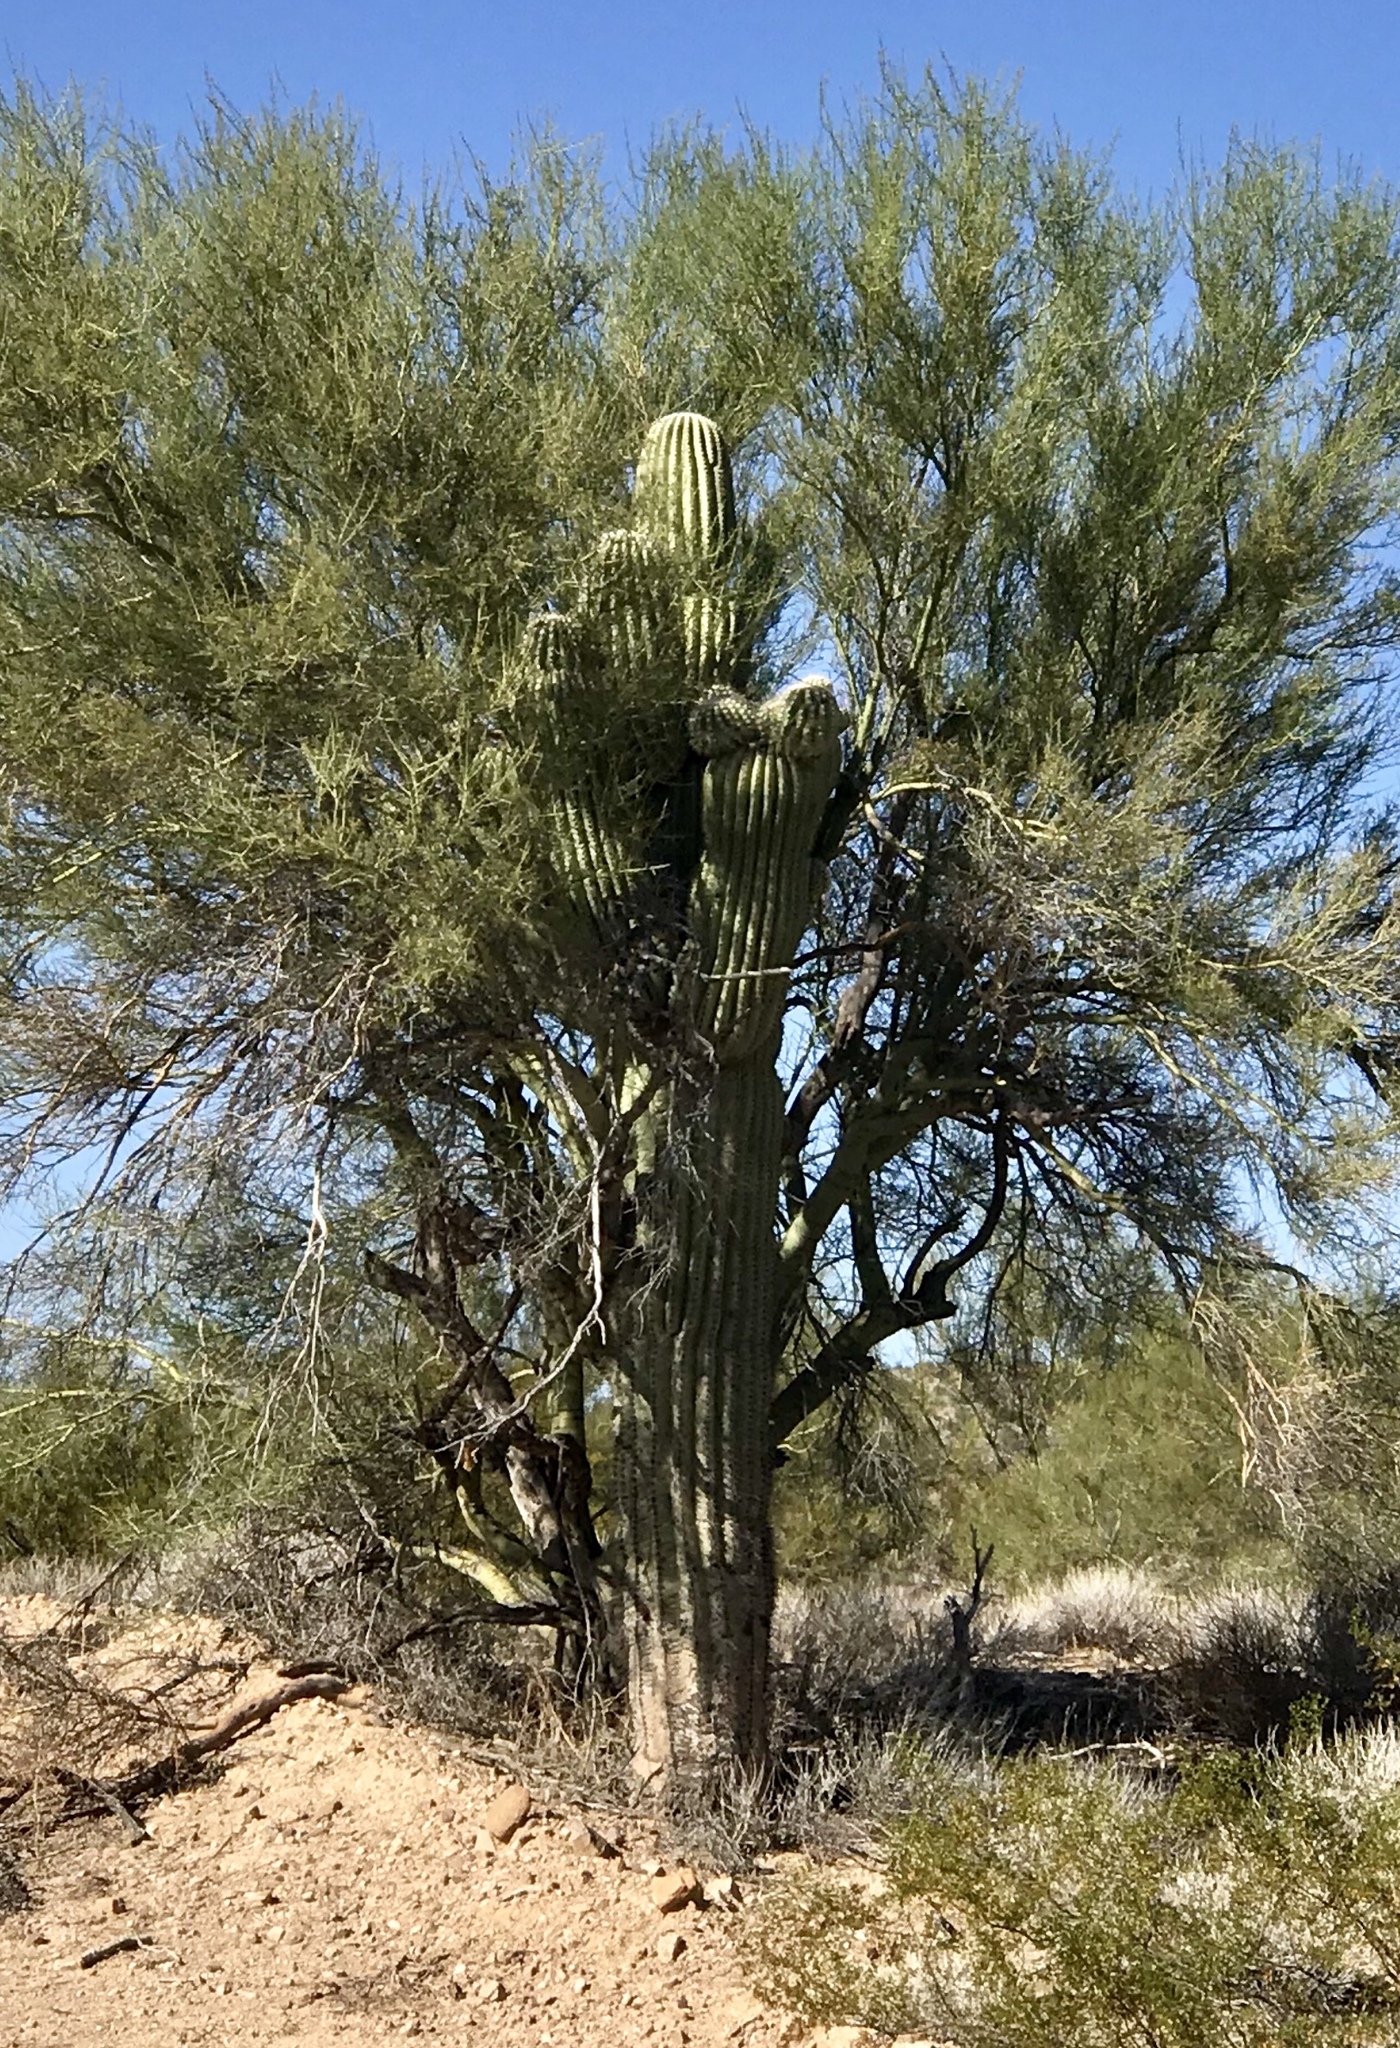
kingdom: Plantae
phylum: Tracheophyta
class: Magnoliopsida
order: Caryophyllales
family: Cactaceae
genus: Carnegiea
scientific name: Carnegiea gigantea
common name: Saguaro
